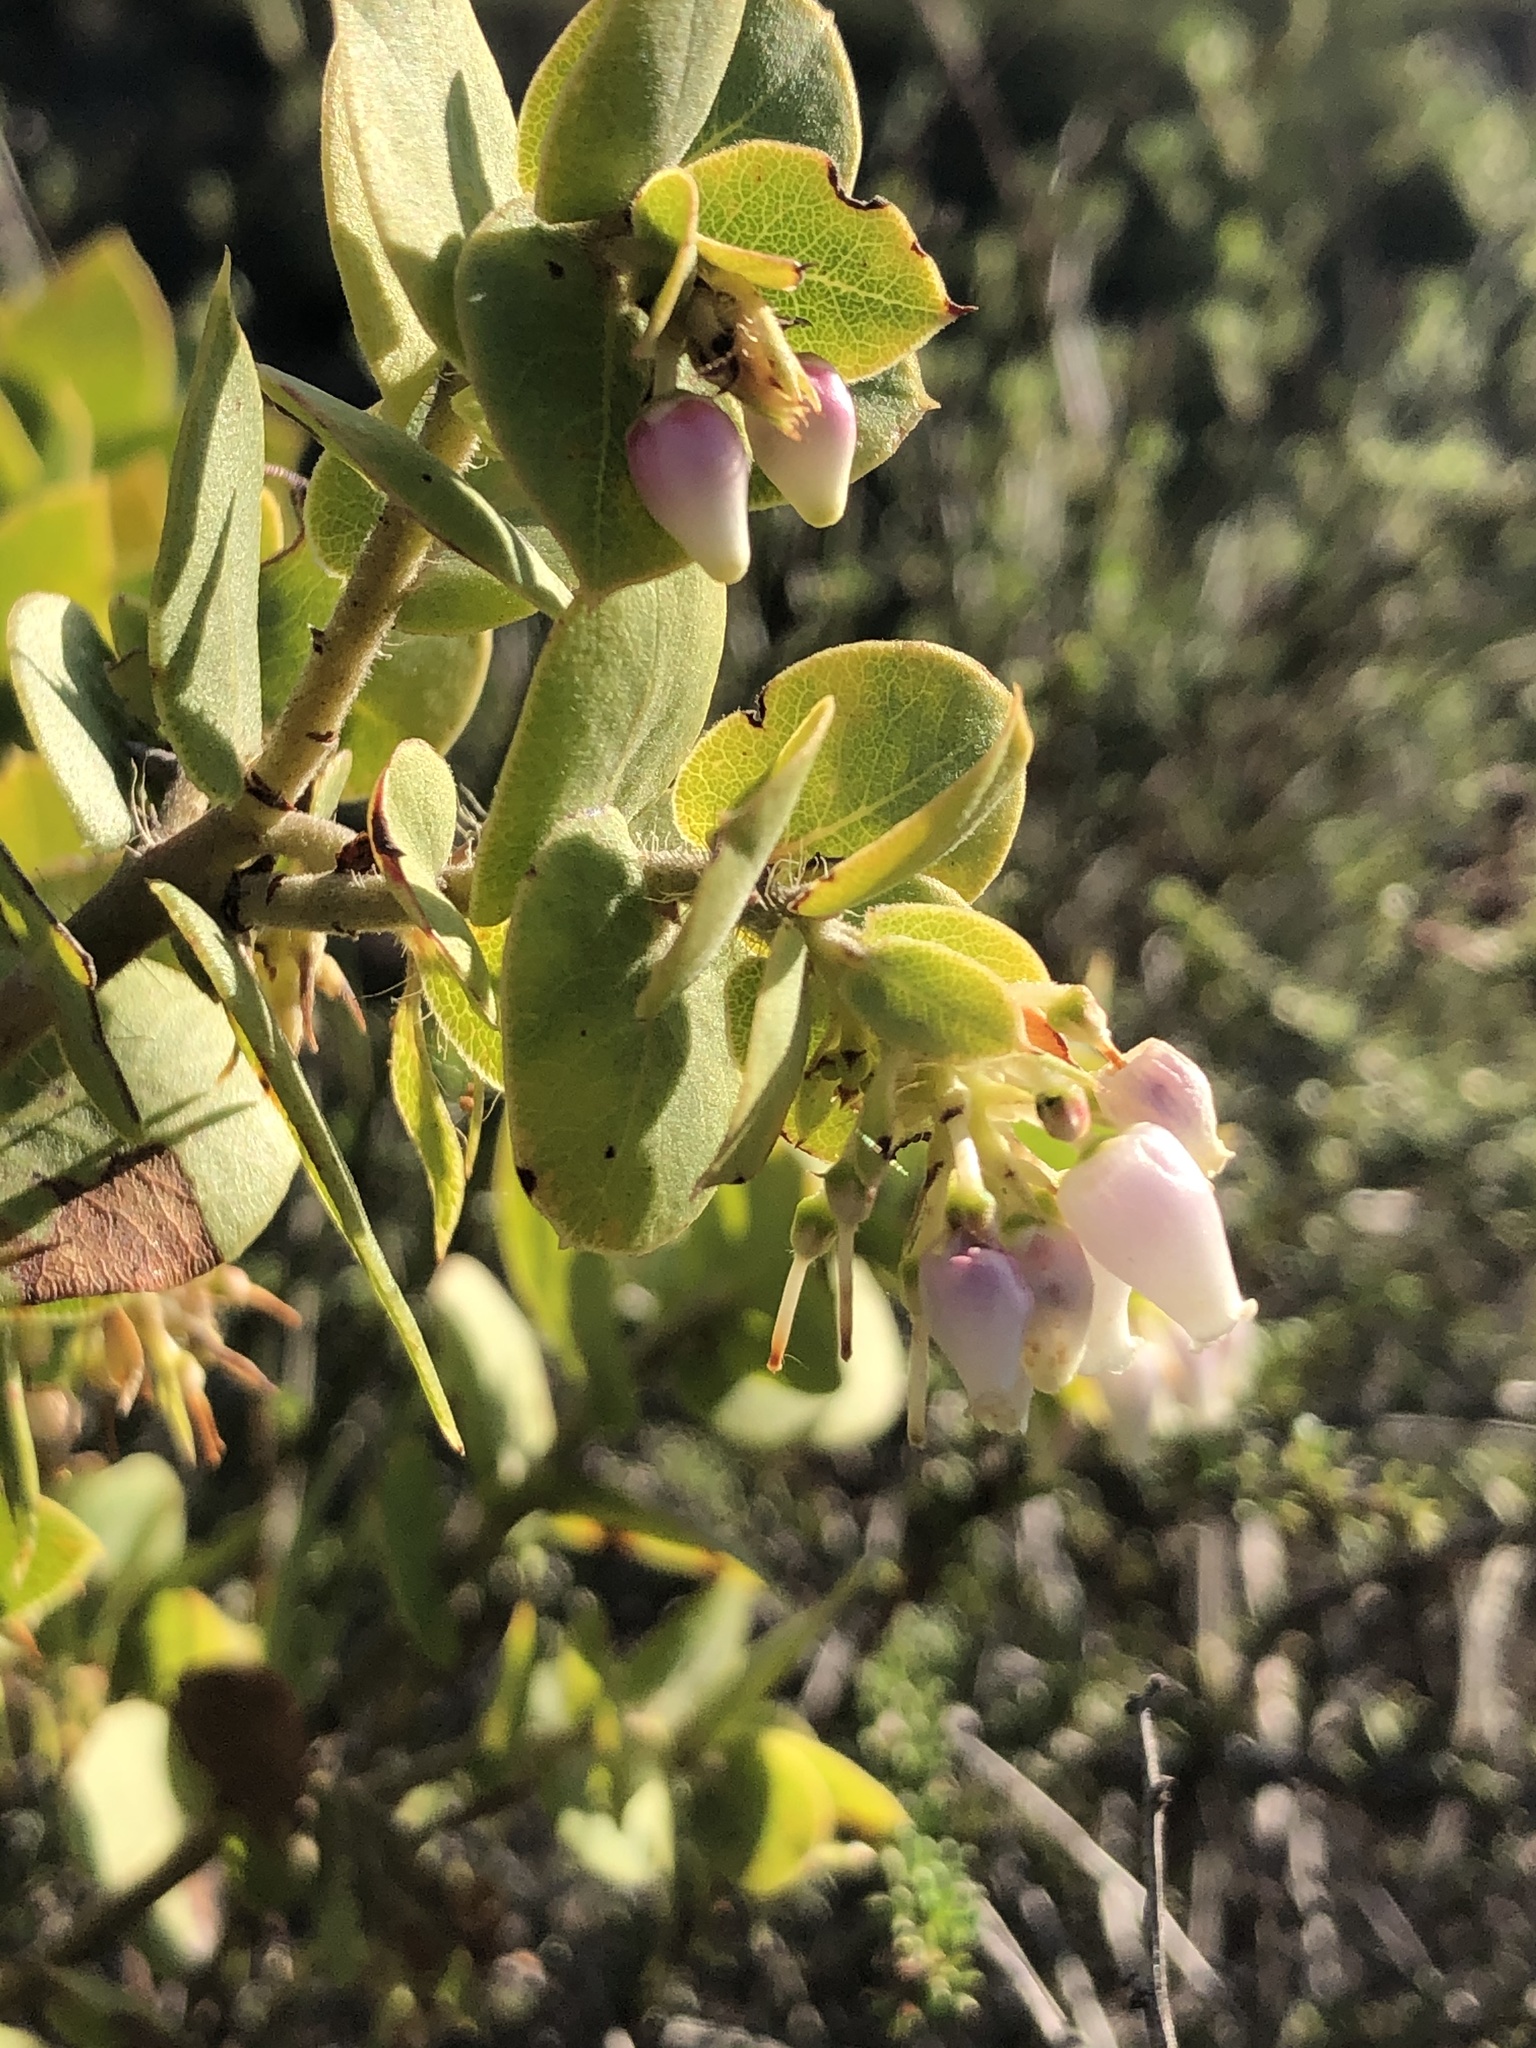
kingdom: Plantae
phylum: Tracheophyta
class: Magnoliopsida
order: Ericales
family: Ericaceae
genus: Arctostaphylos
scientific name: Arctostaphylos pechoensis
